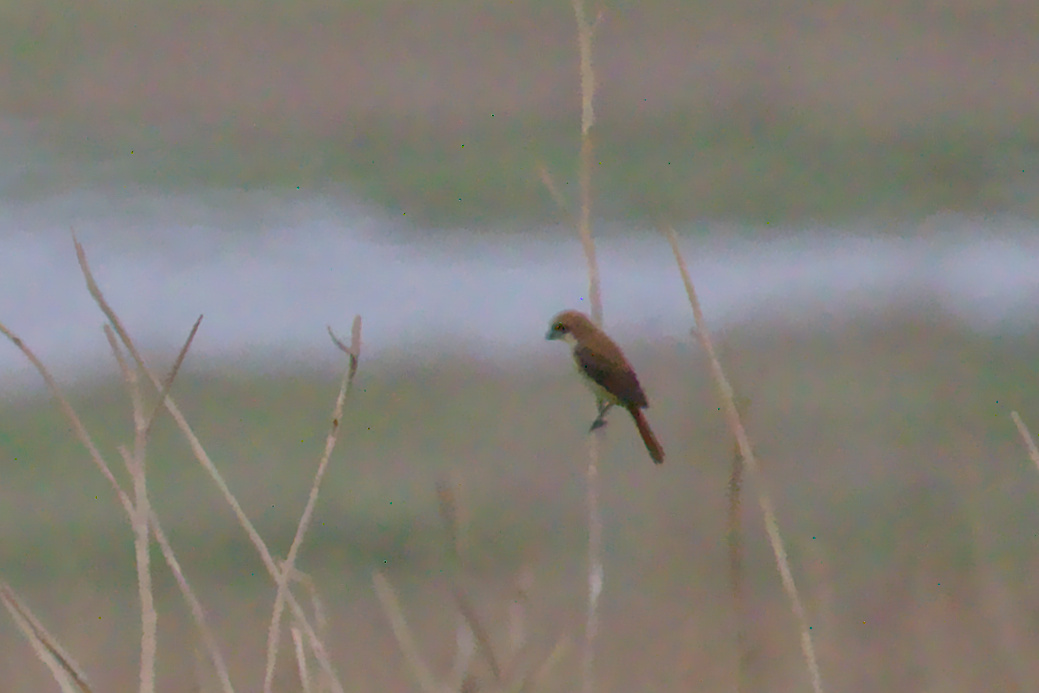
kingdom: Animalia
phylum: Chordata
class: Aves
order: Passeriformes
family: Laniidae
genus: Lanius
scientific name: Lanius cristatus
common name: Brown shrike
